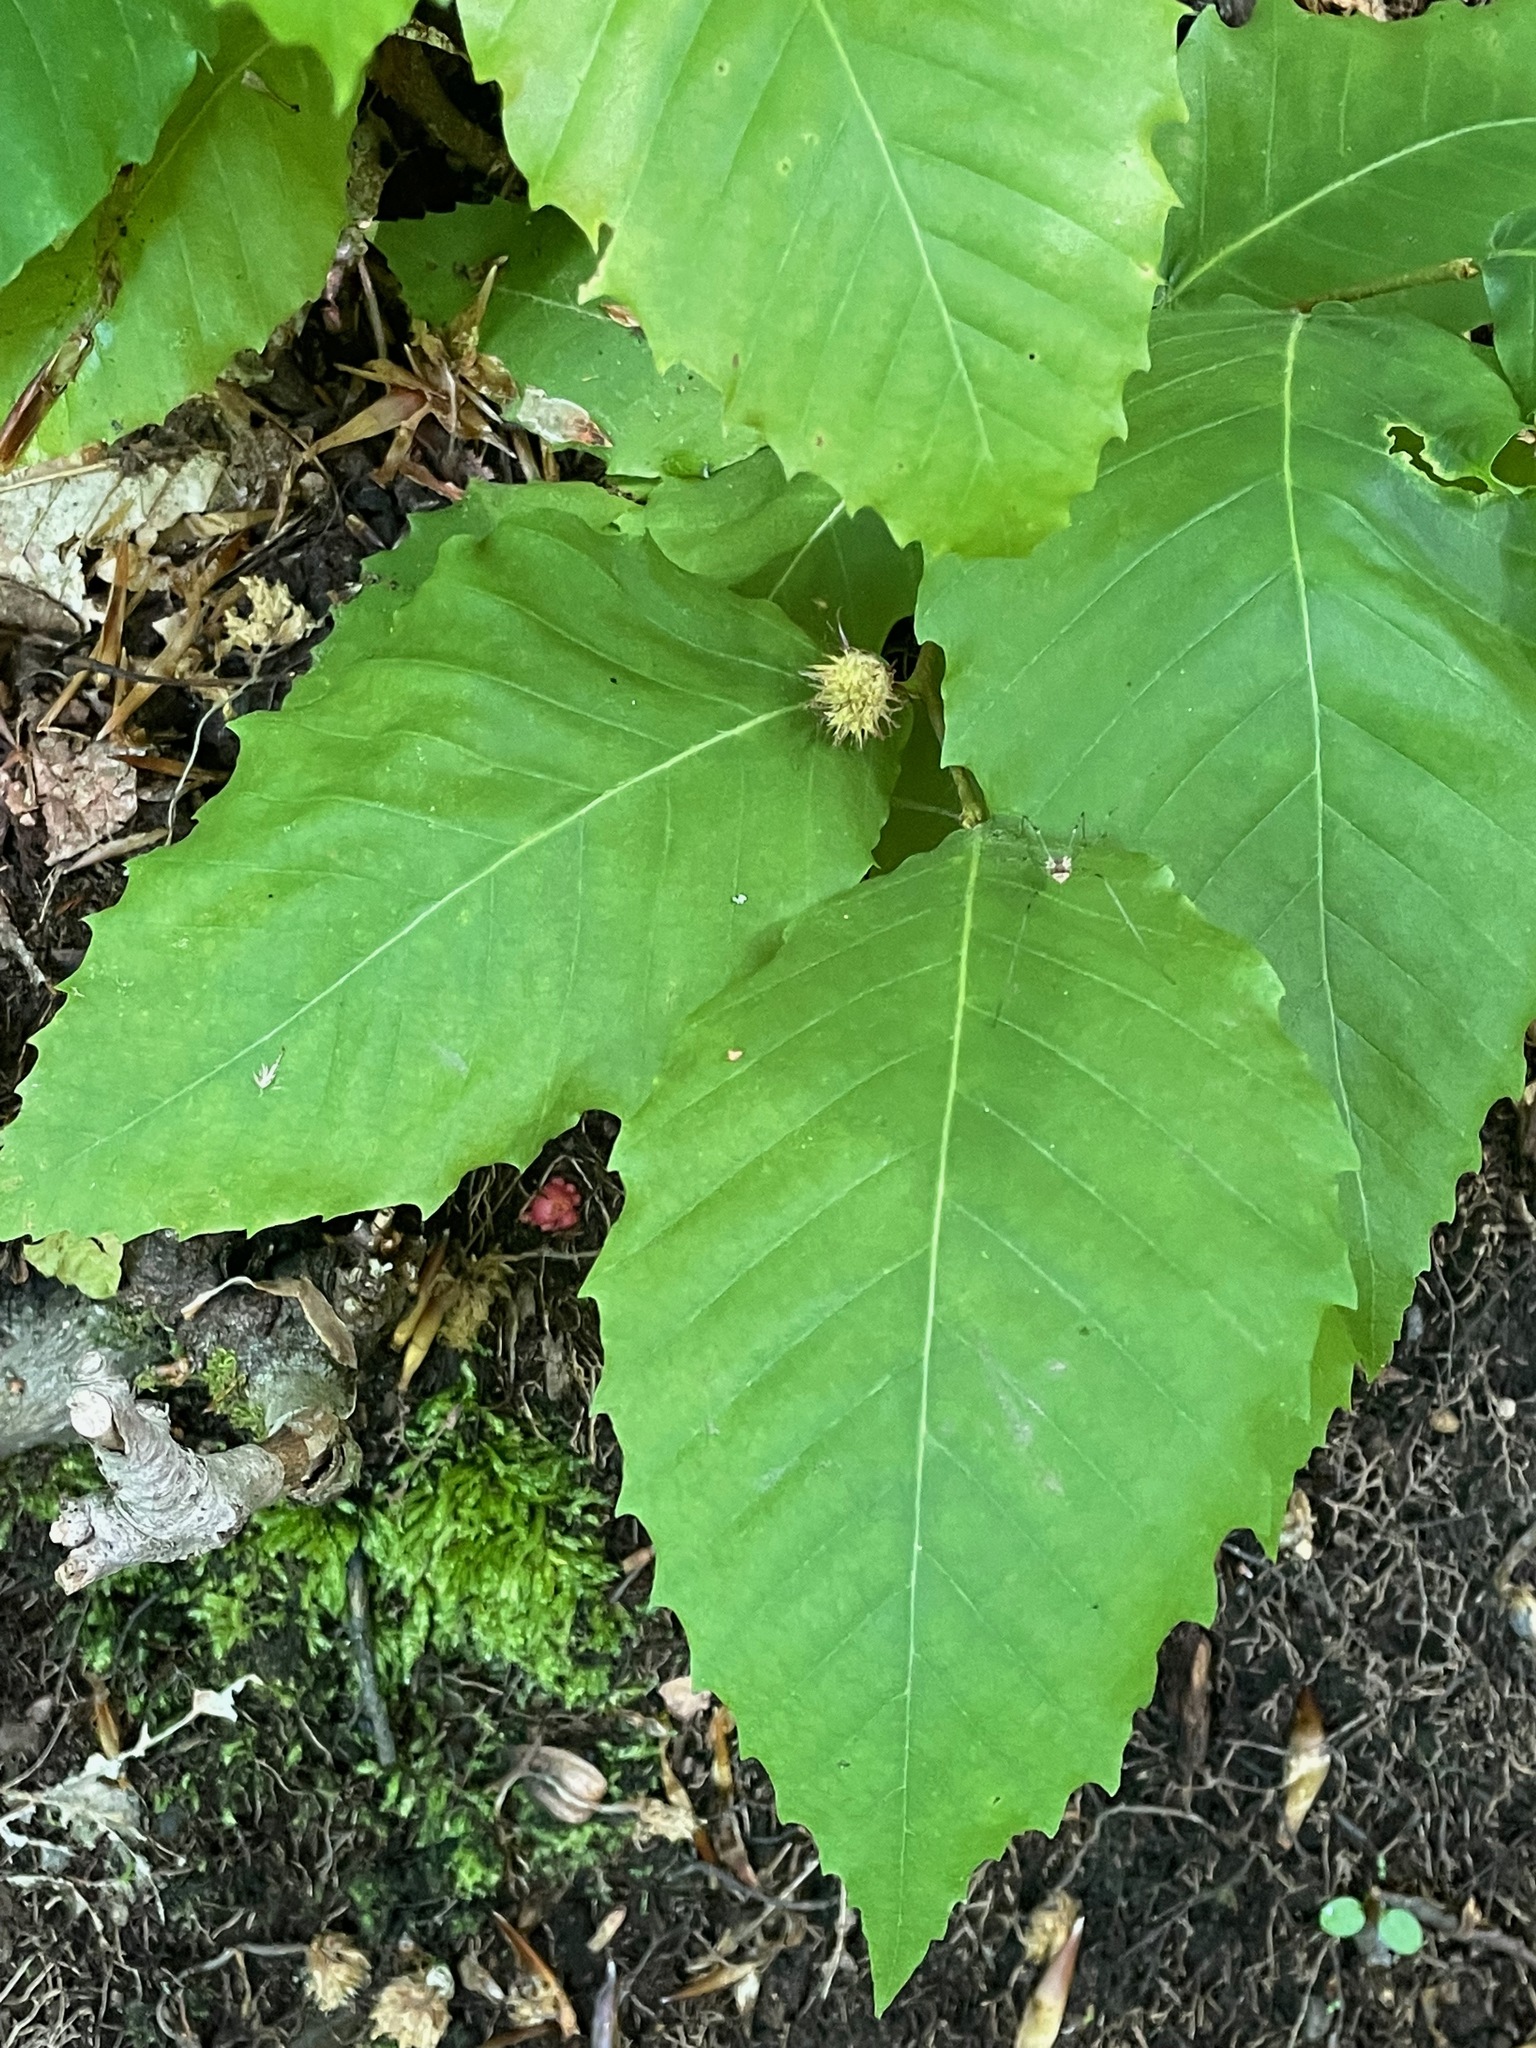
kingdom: Plantae
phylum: Tracheophyta
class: Magnoliopsida
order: Fagales
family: Fagaceae
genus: Fagus
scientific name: Fagus grandifolia
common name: American beech
